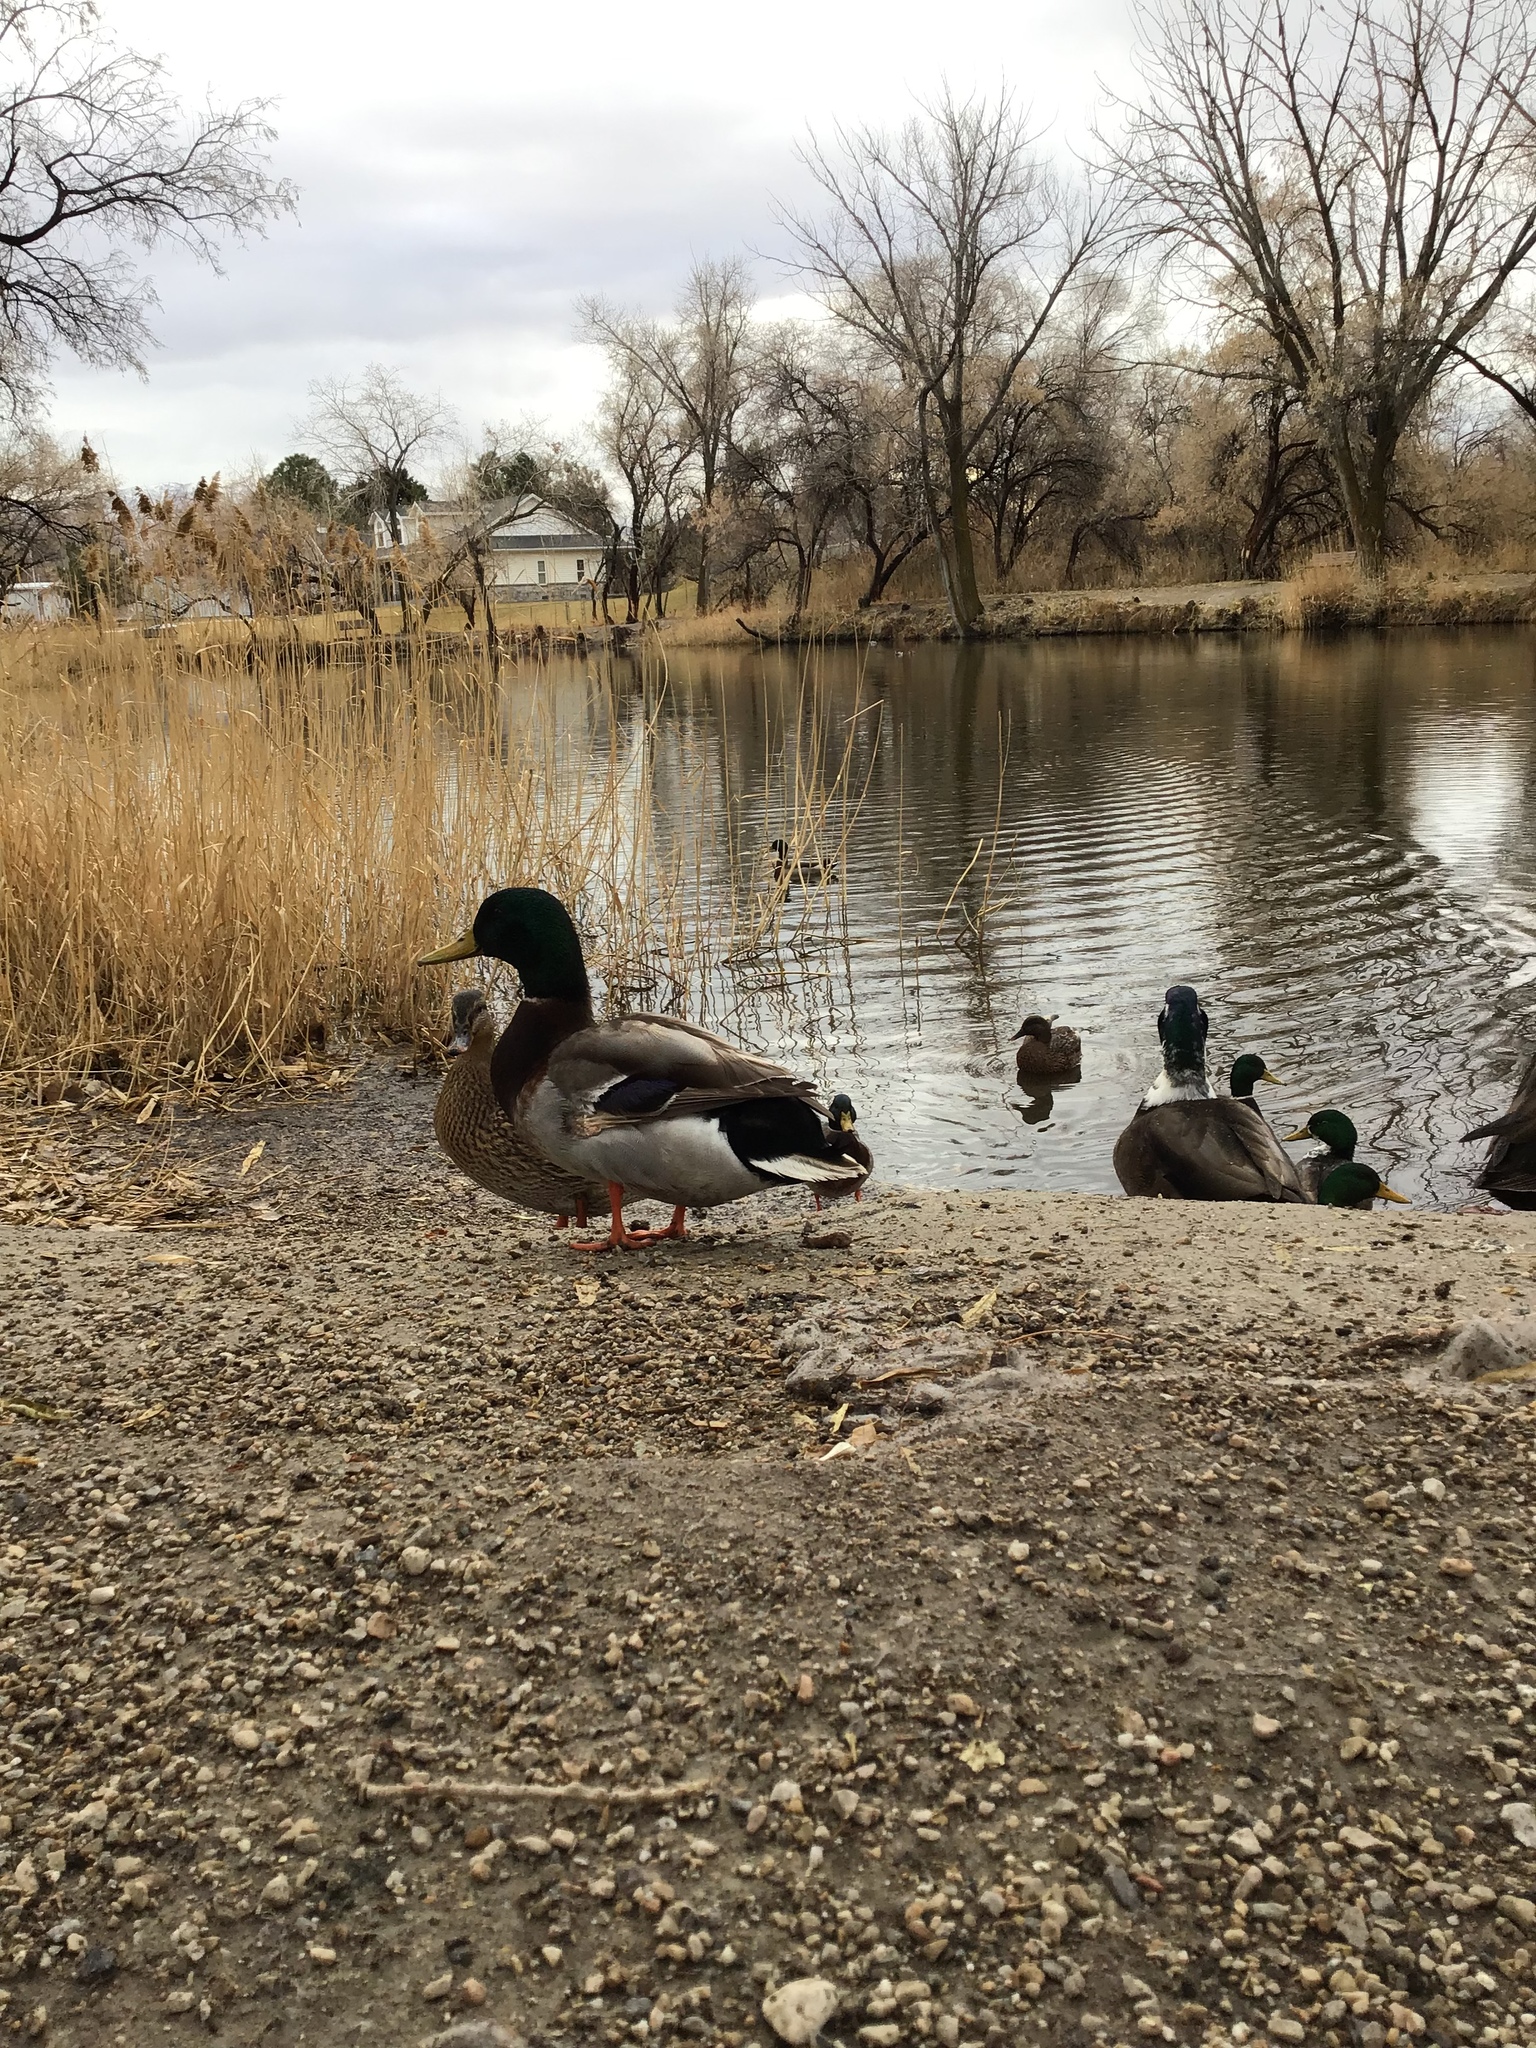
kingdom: Animalia
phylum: Chordata
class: Aves
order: Anseriformes
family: Anatidae
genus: Anas
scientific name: Anas platyrhynchos
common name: Mallard
